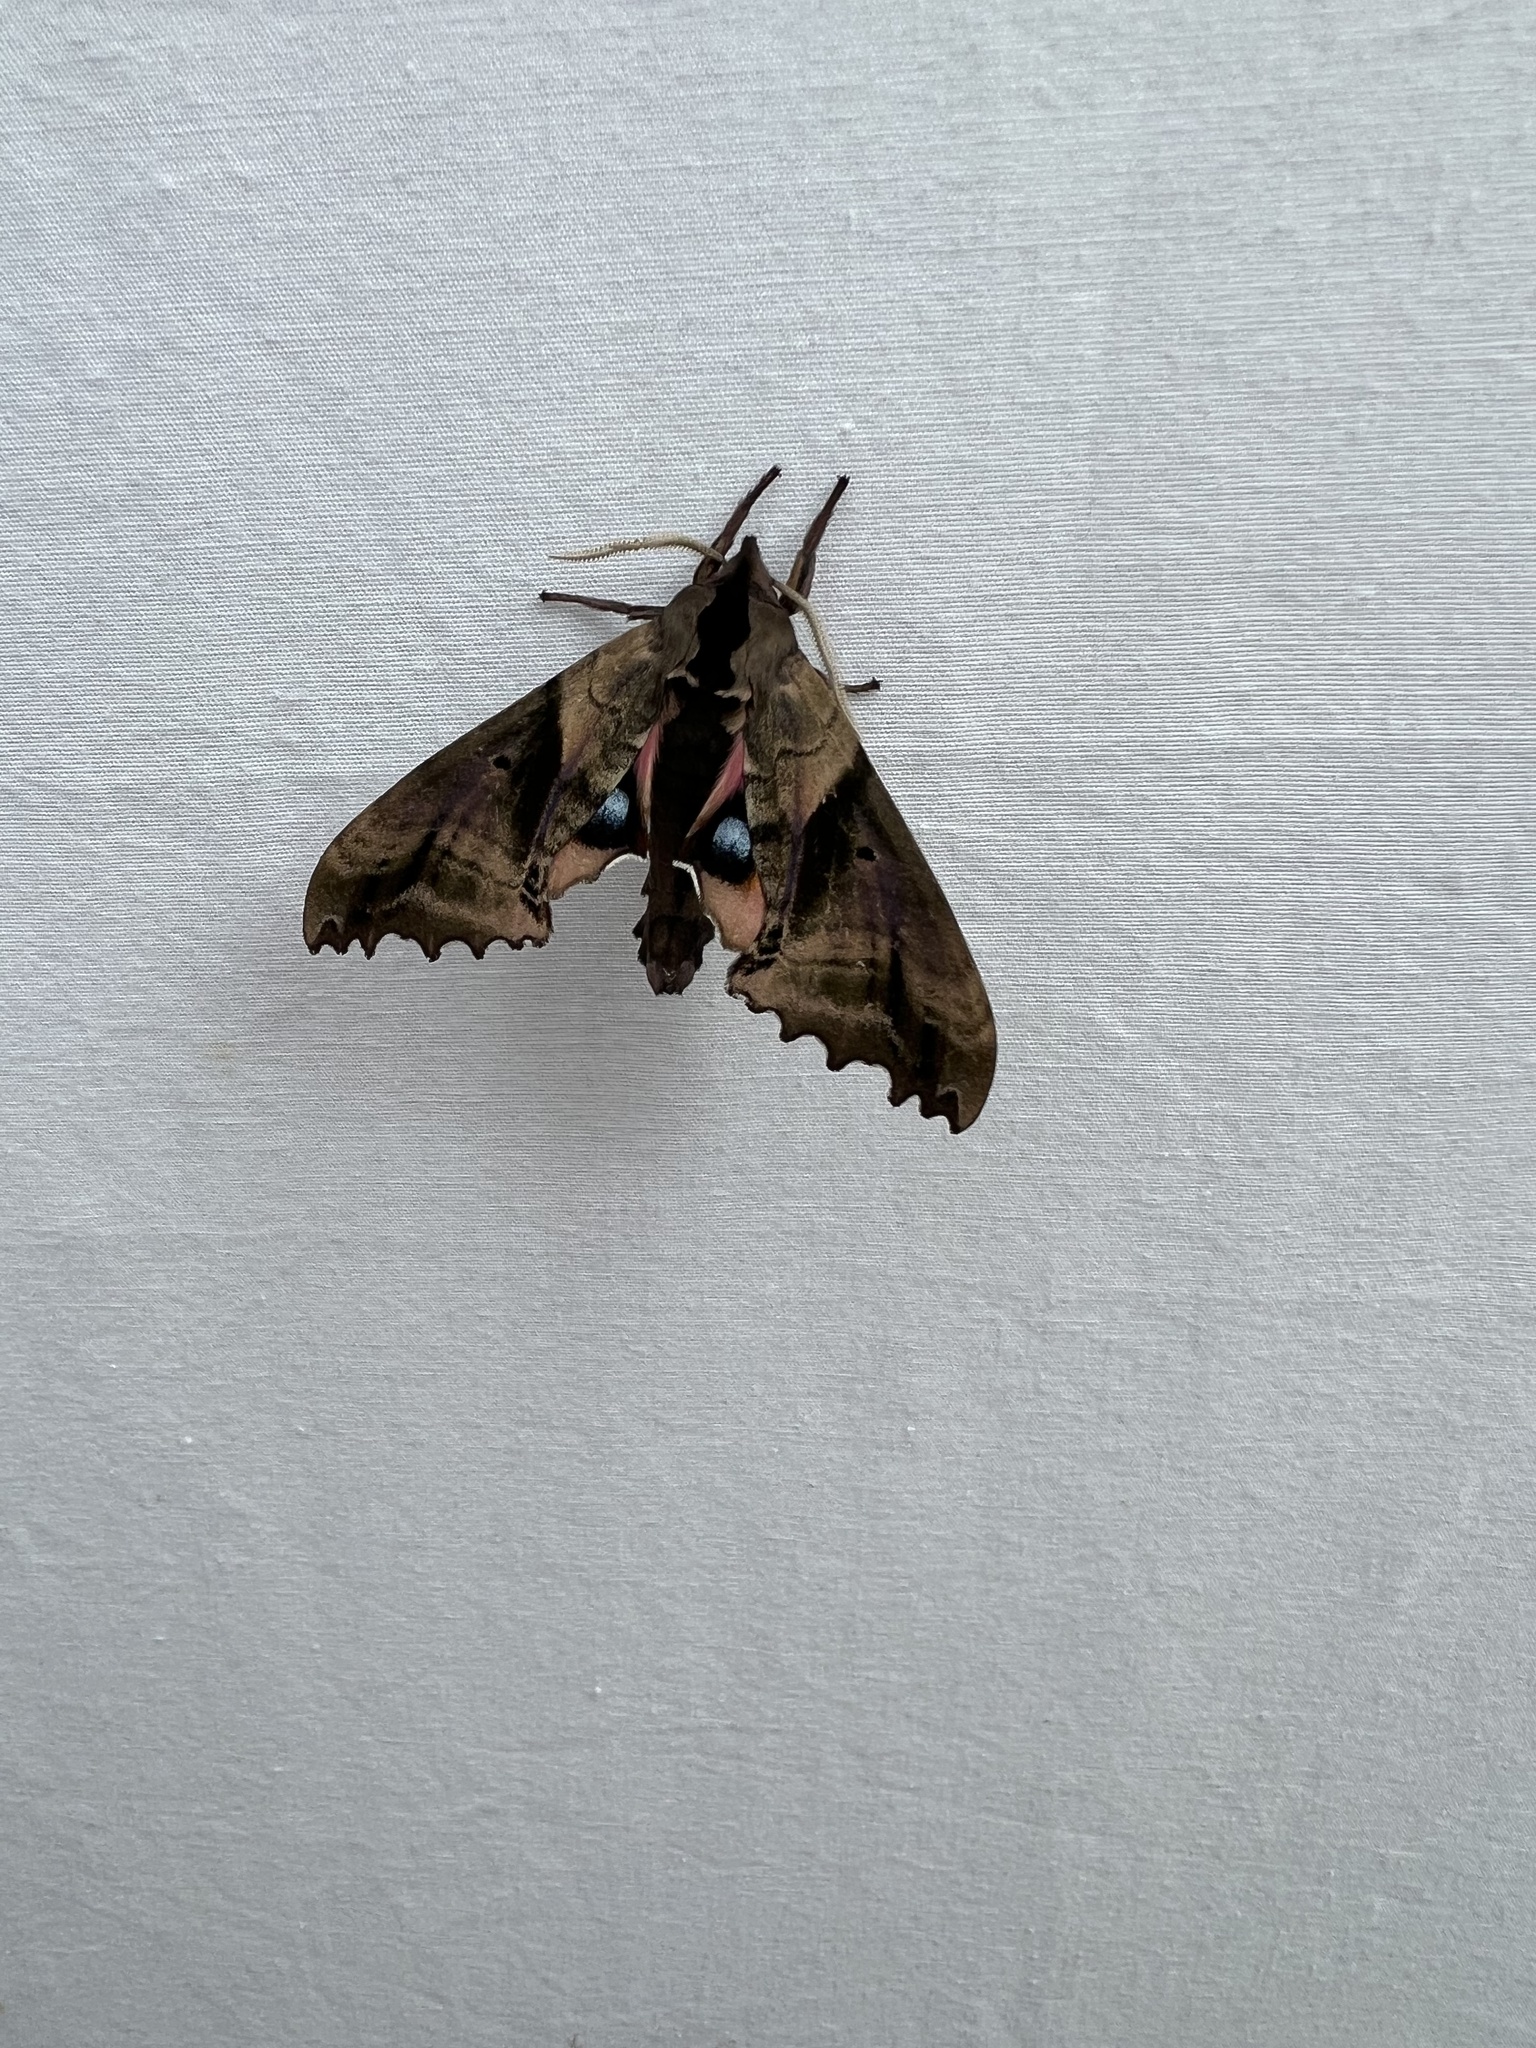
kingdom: Animalia
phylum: Arthropoda
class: Insecta
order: Lepidoptera
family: Sphingidae
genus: Paonias
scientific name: Paonias excaecata
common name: Blind-eyed sphinx
